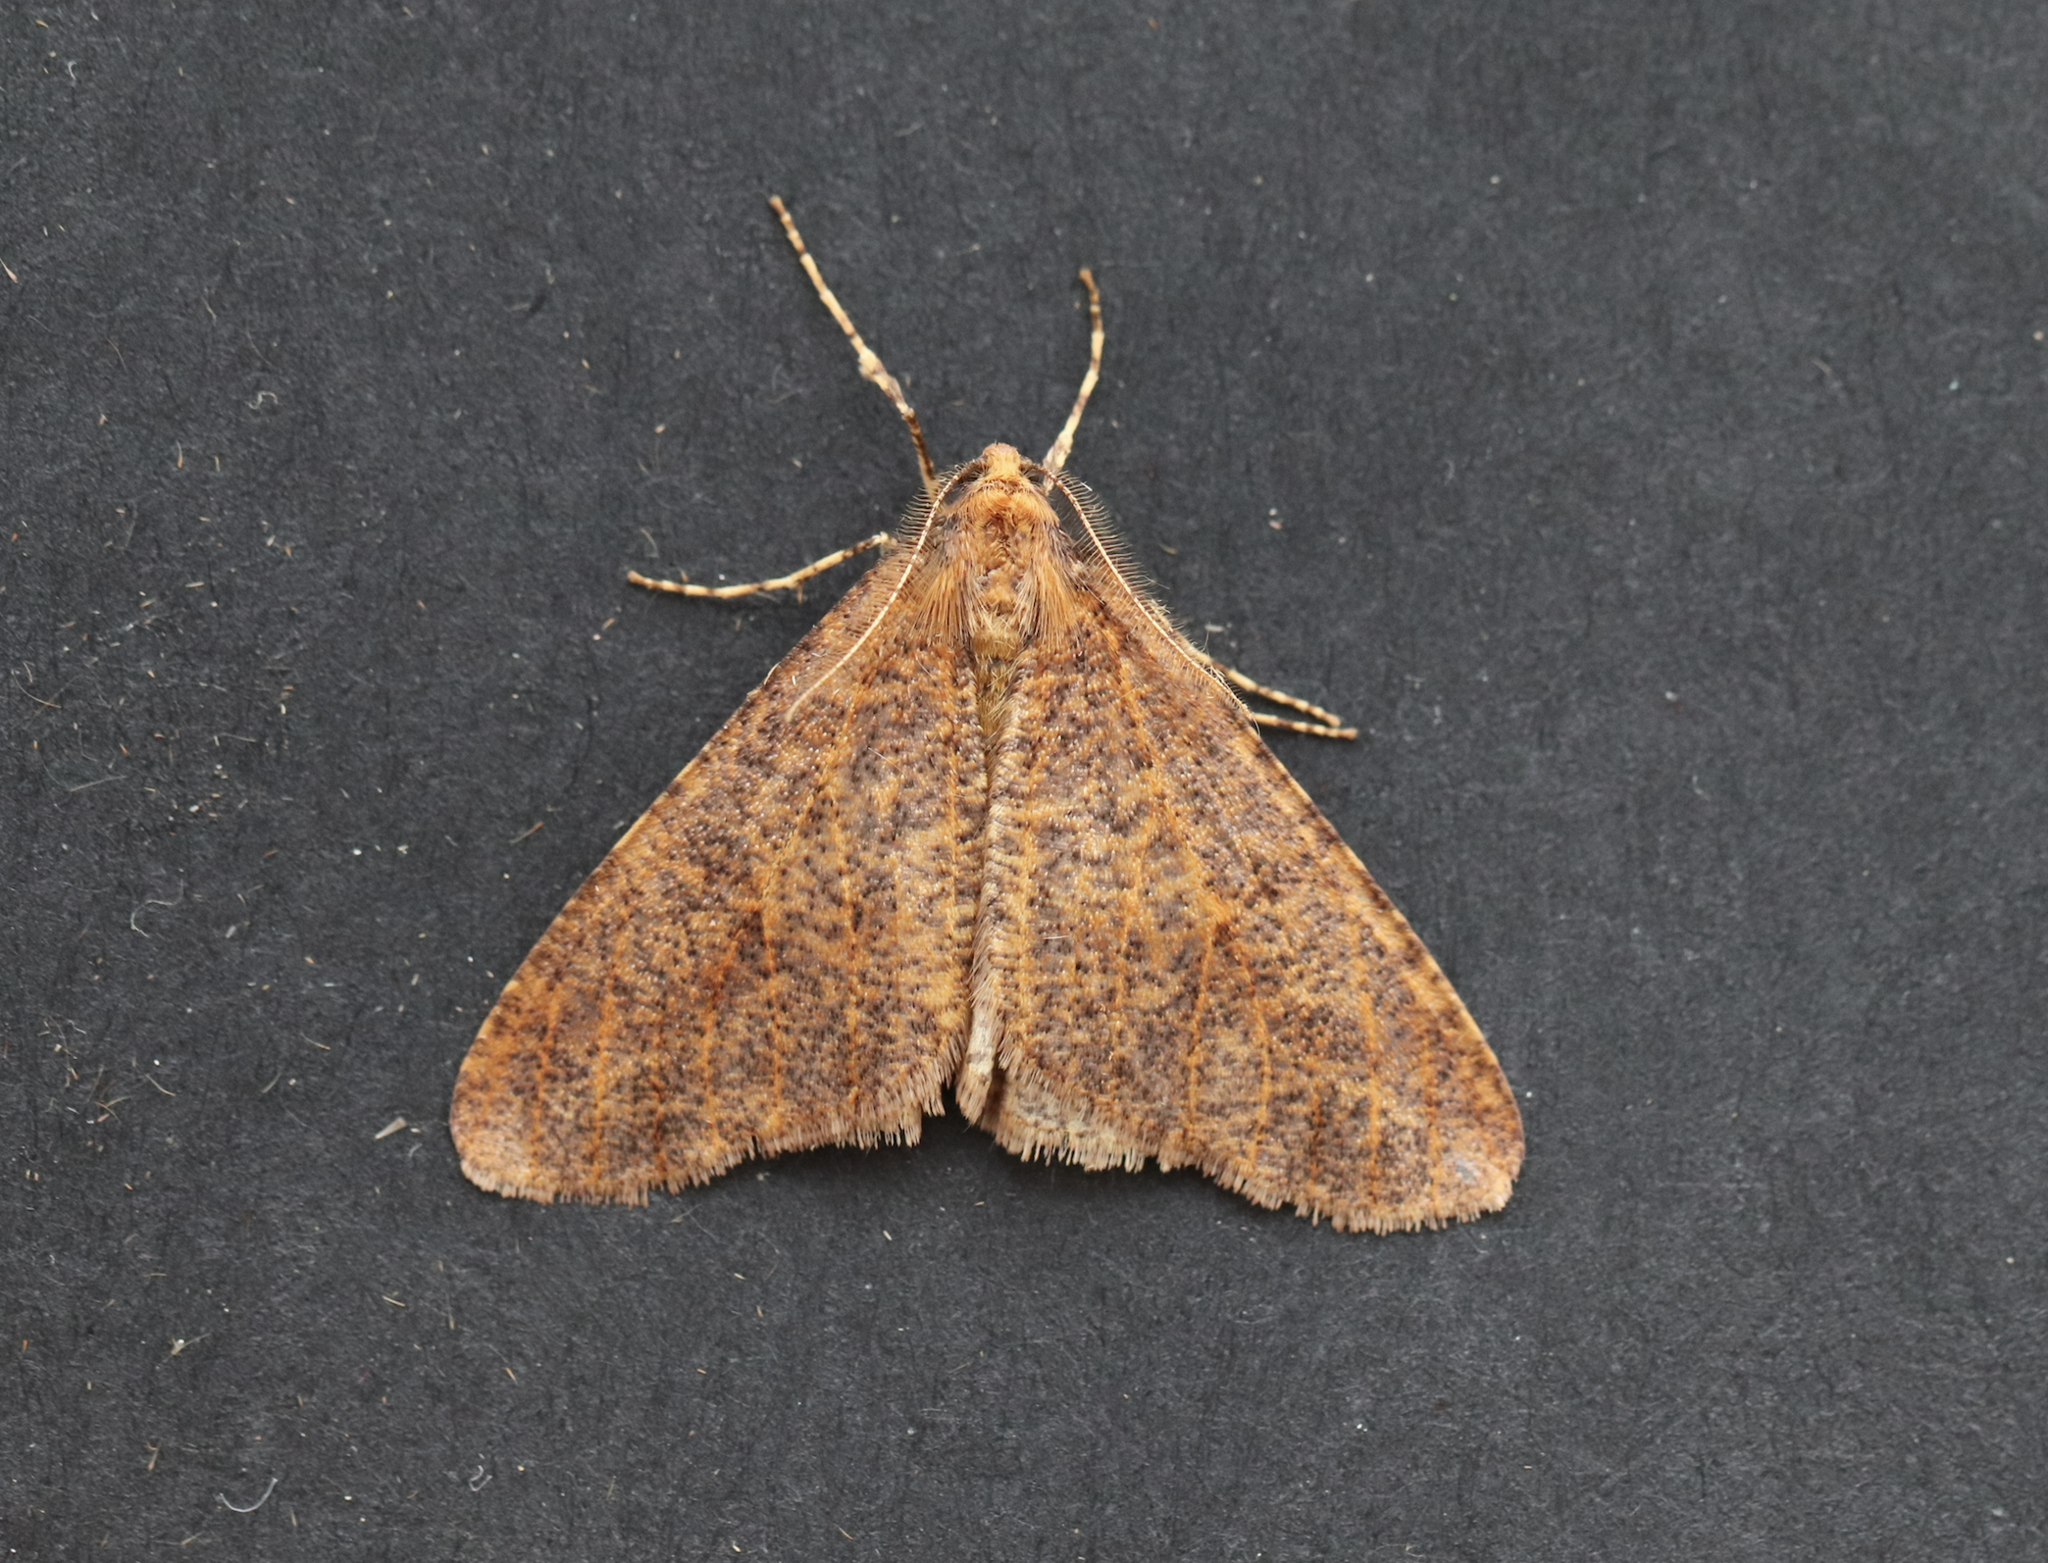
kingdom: Animalia
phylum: Arthropoda
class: Insecta
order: Lepidoptera
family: Geometridae
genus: Erannis
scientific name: Erannis defoliaria
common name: Mottled umber
